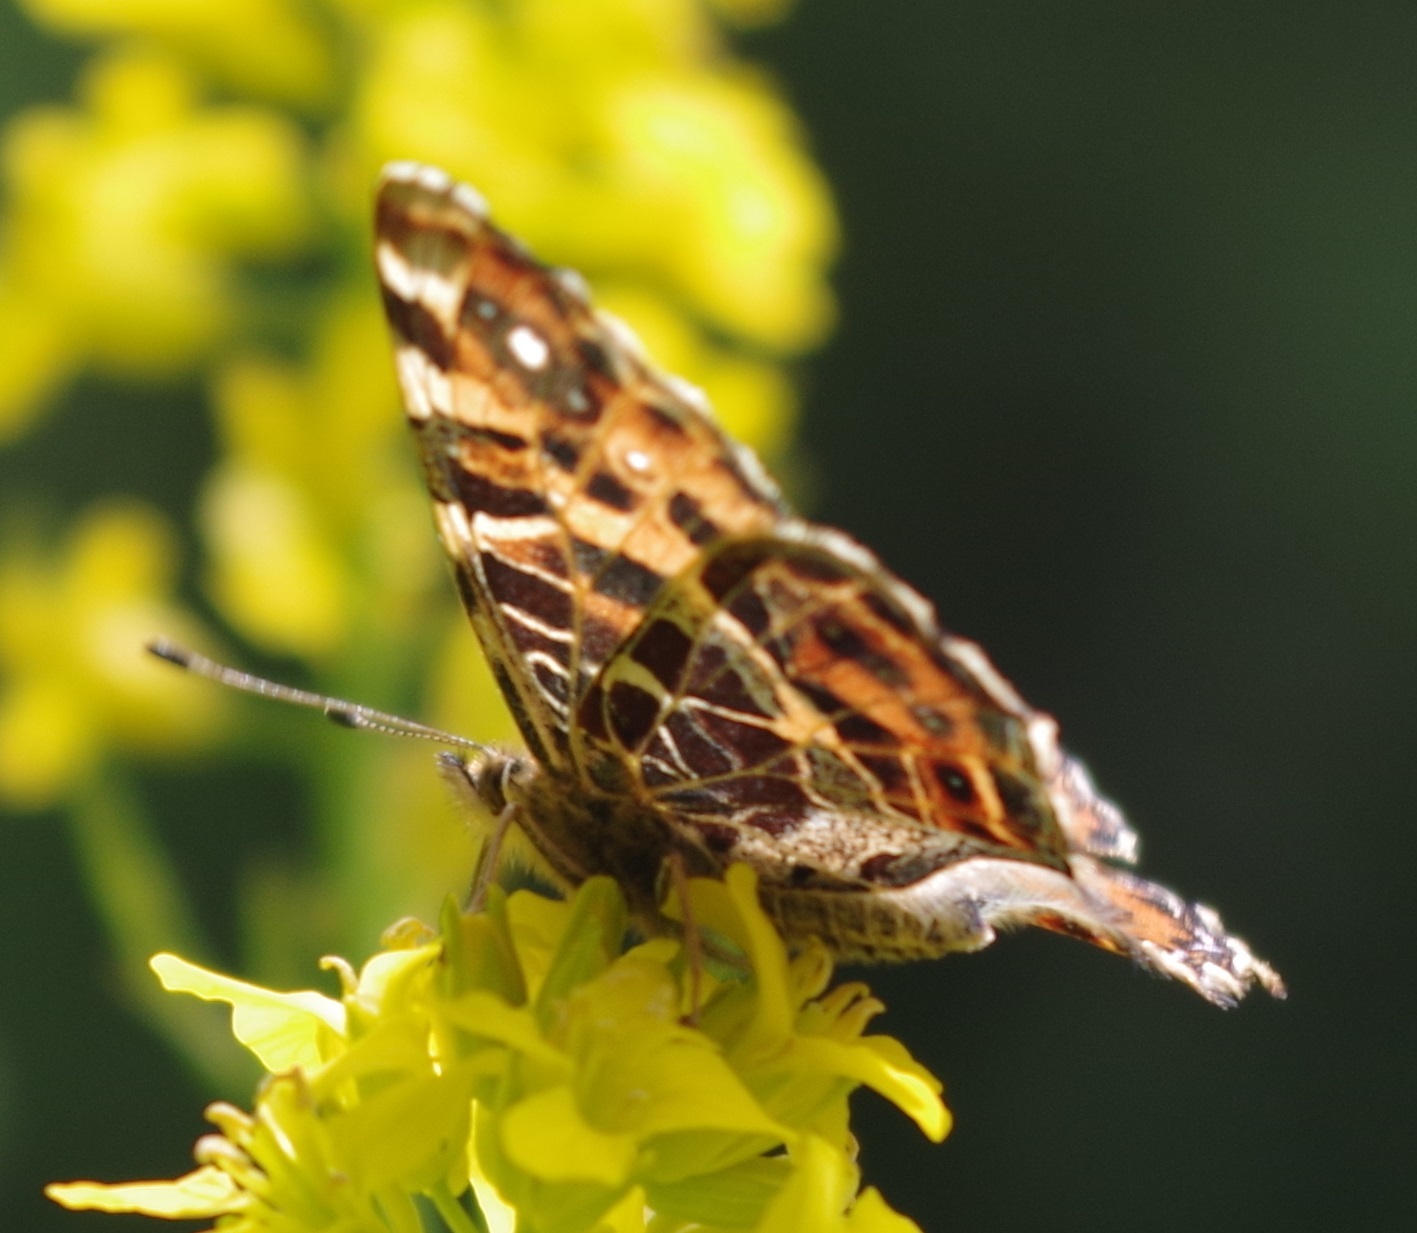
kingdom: Animalia
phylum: Arthropoda
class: Insecta
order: Lepidoptera
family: Nymphalidae
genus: Araschnia
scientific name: Araschnia levana
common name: Map butterfly
